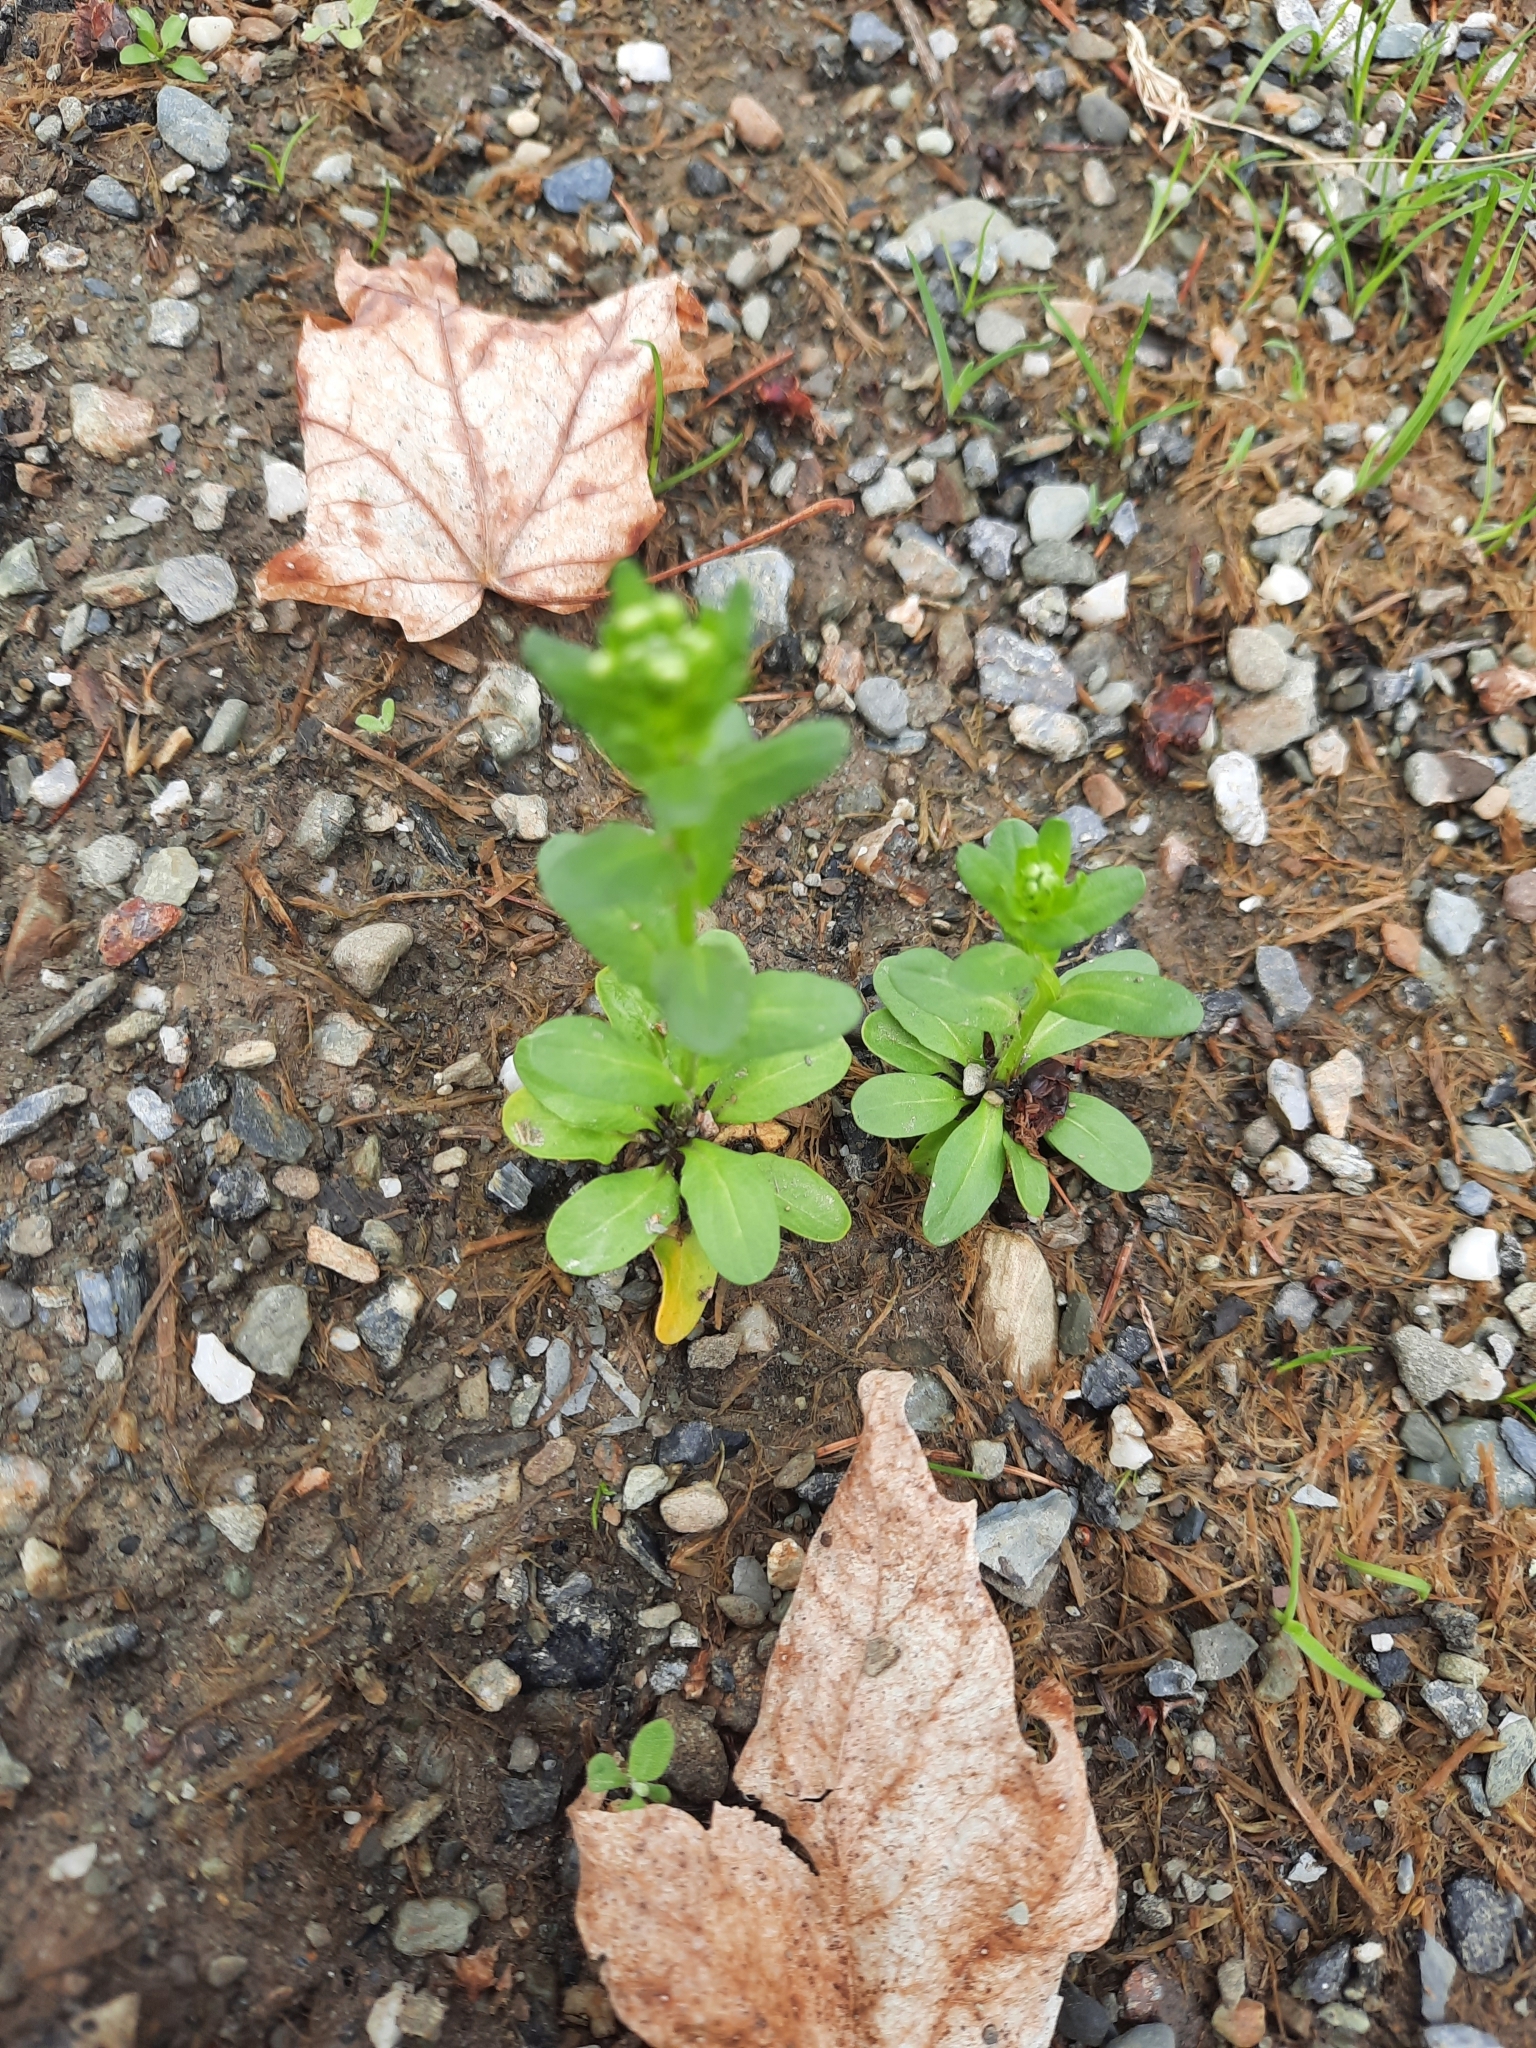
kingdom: Plantae
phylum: Tracheophyta
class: Magnoliopsida
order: Brassicales
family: Brassicaceae
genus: Thlaspi
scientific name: Thlaspi arvense
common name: Field pennycress
